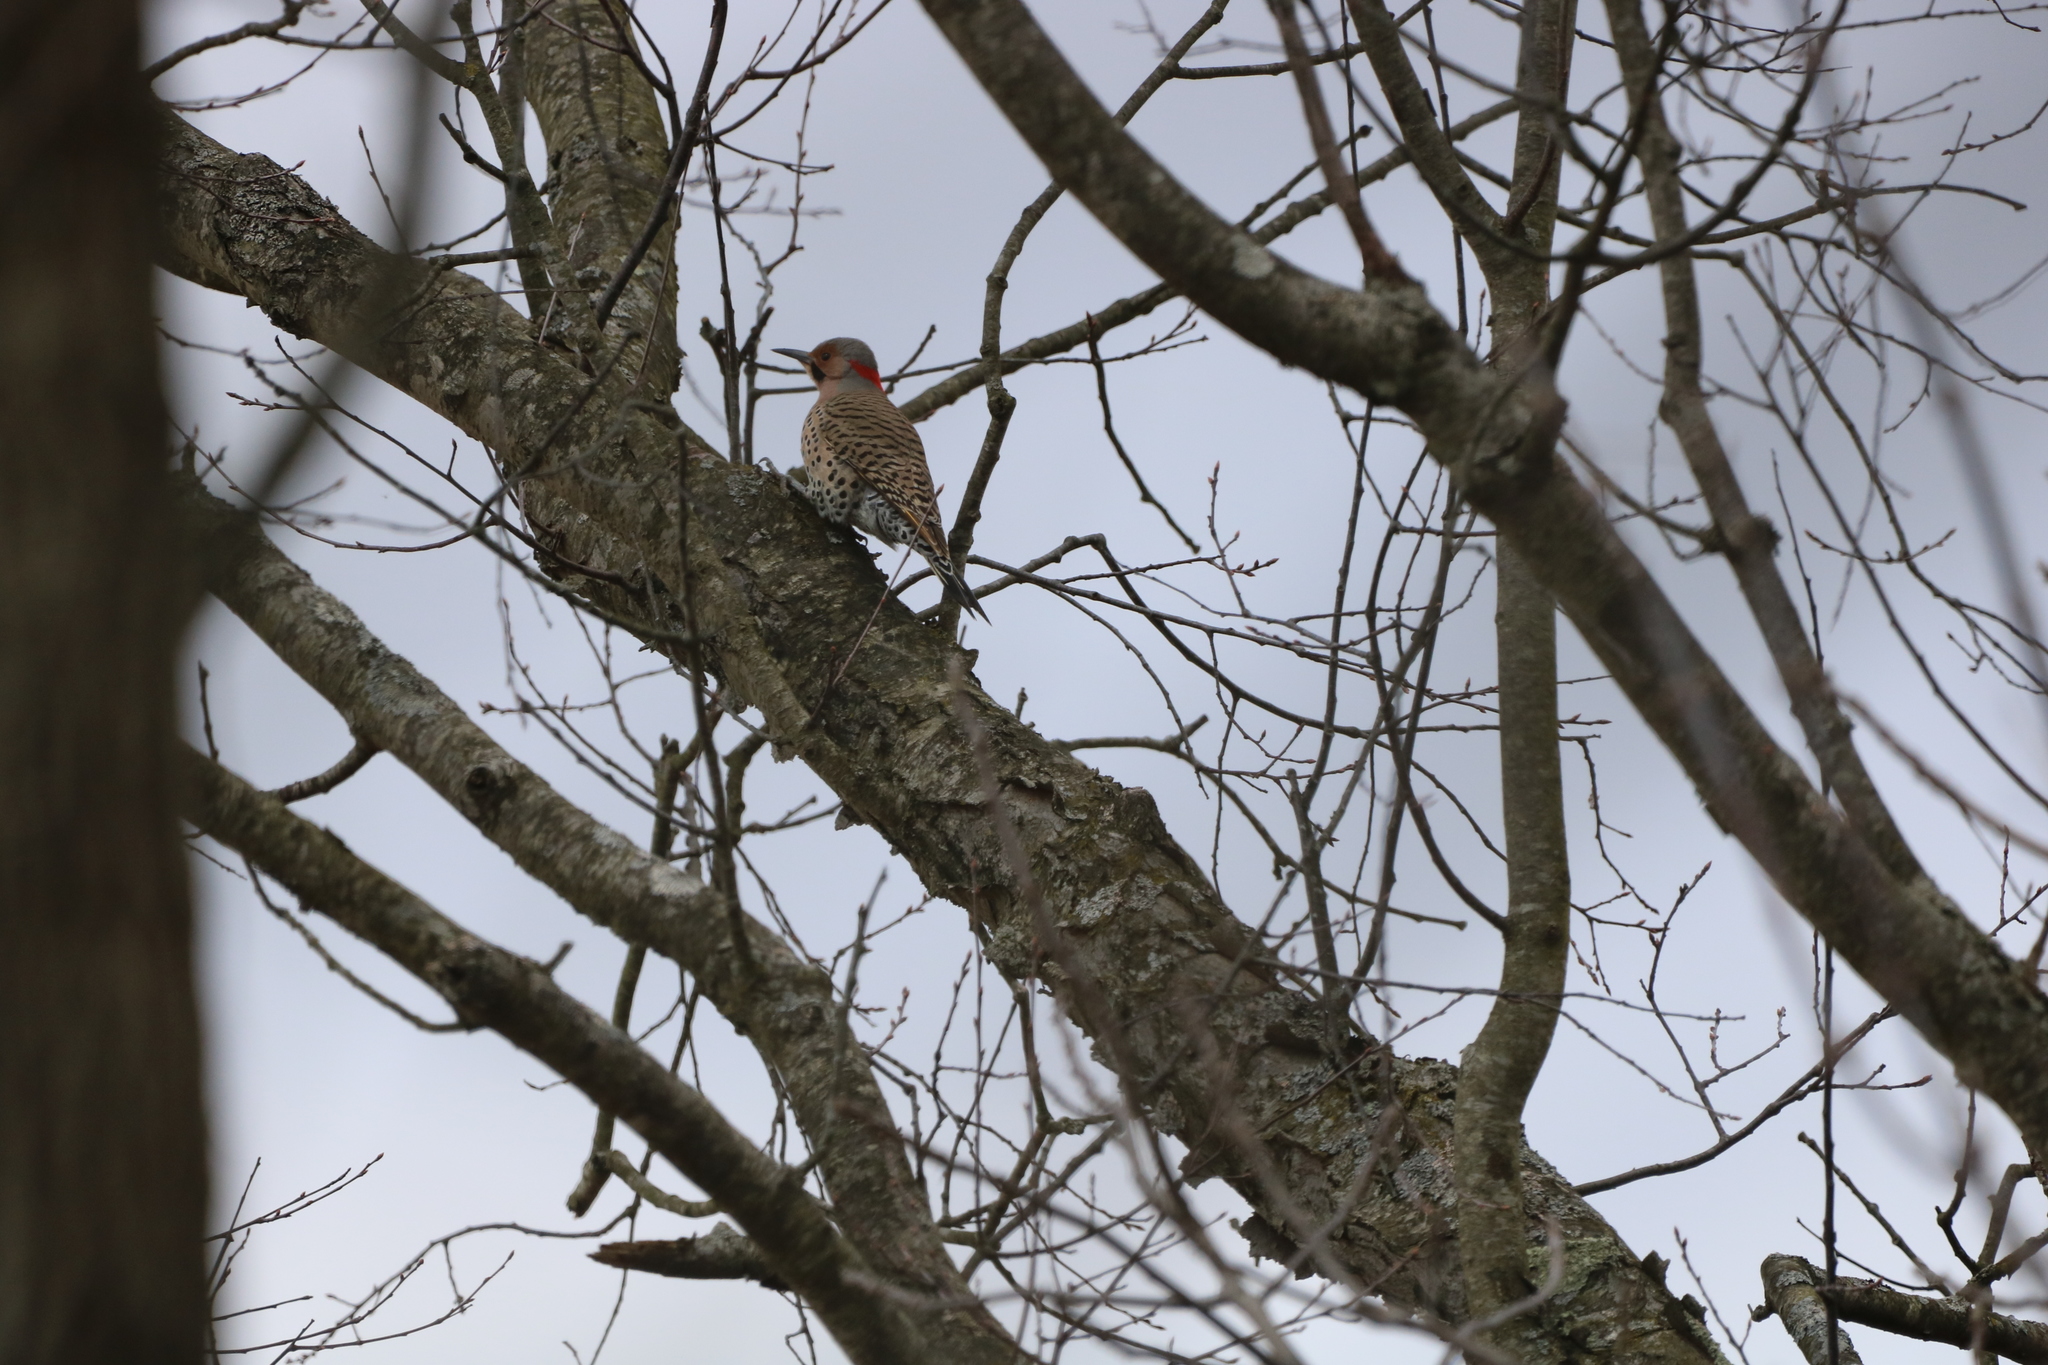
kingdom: Animalia
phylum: Chordata
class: Aves
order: Piciformes
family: Picidae
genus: Colaptes
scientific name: Colaptes auratus
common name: Northern flicker
